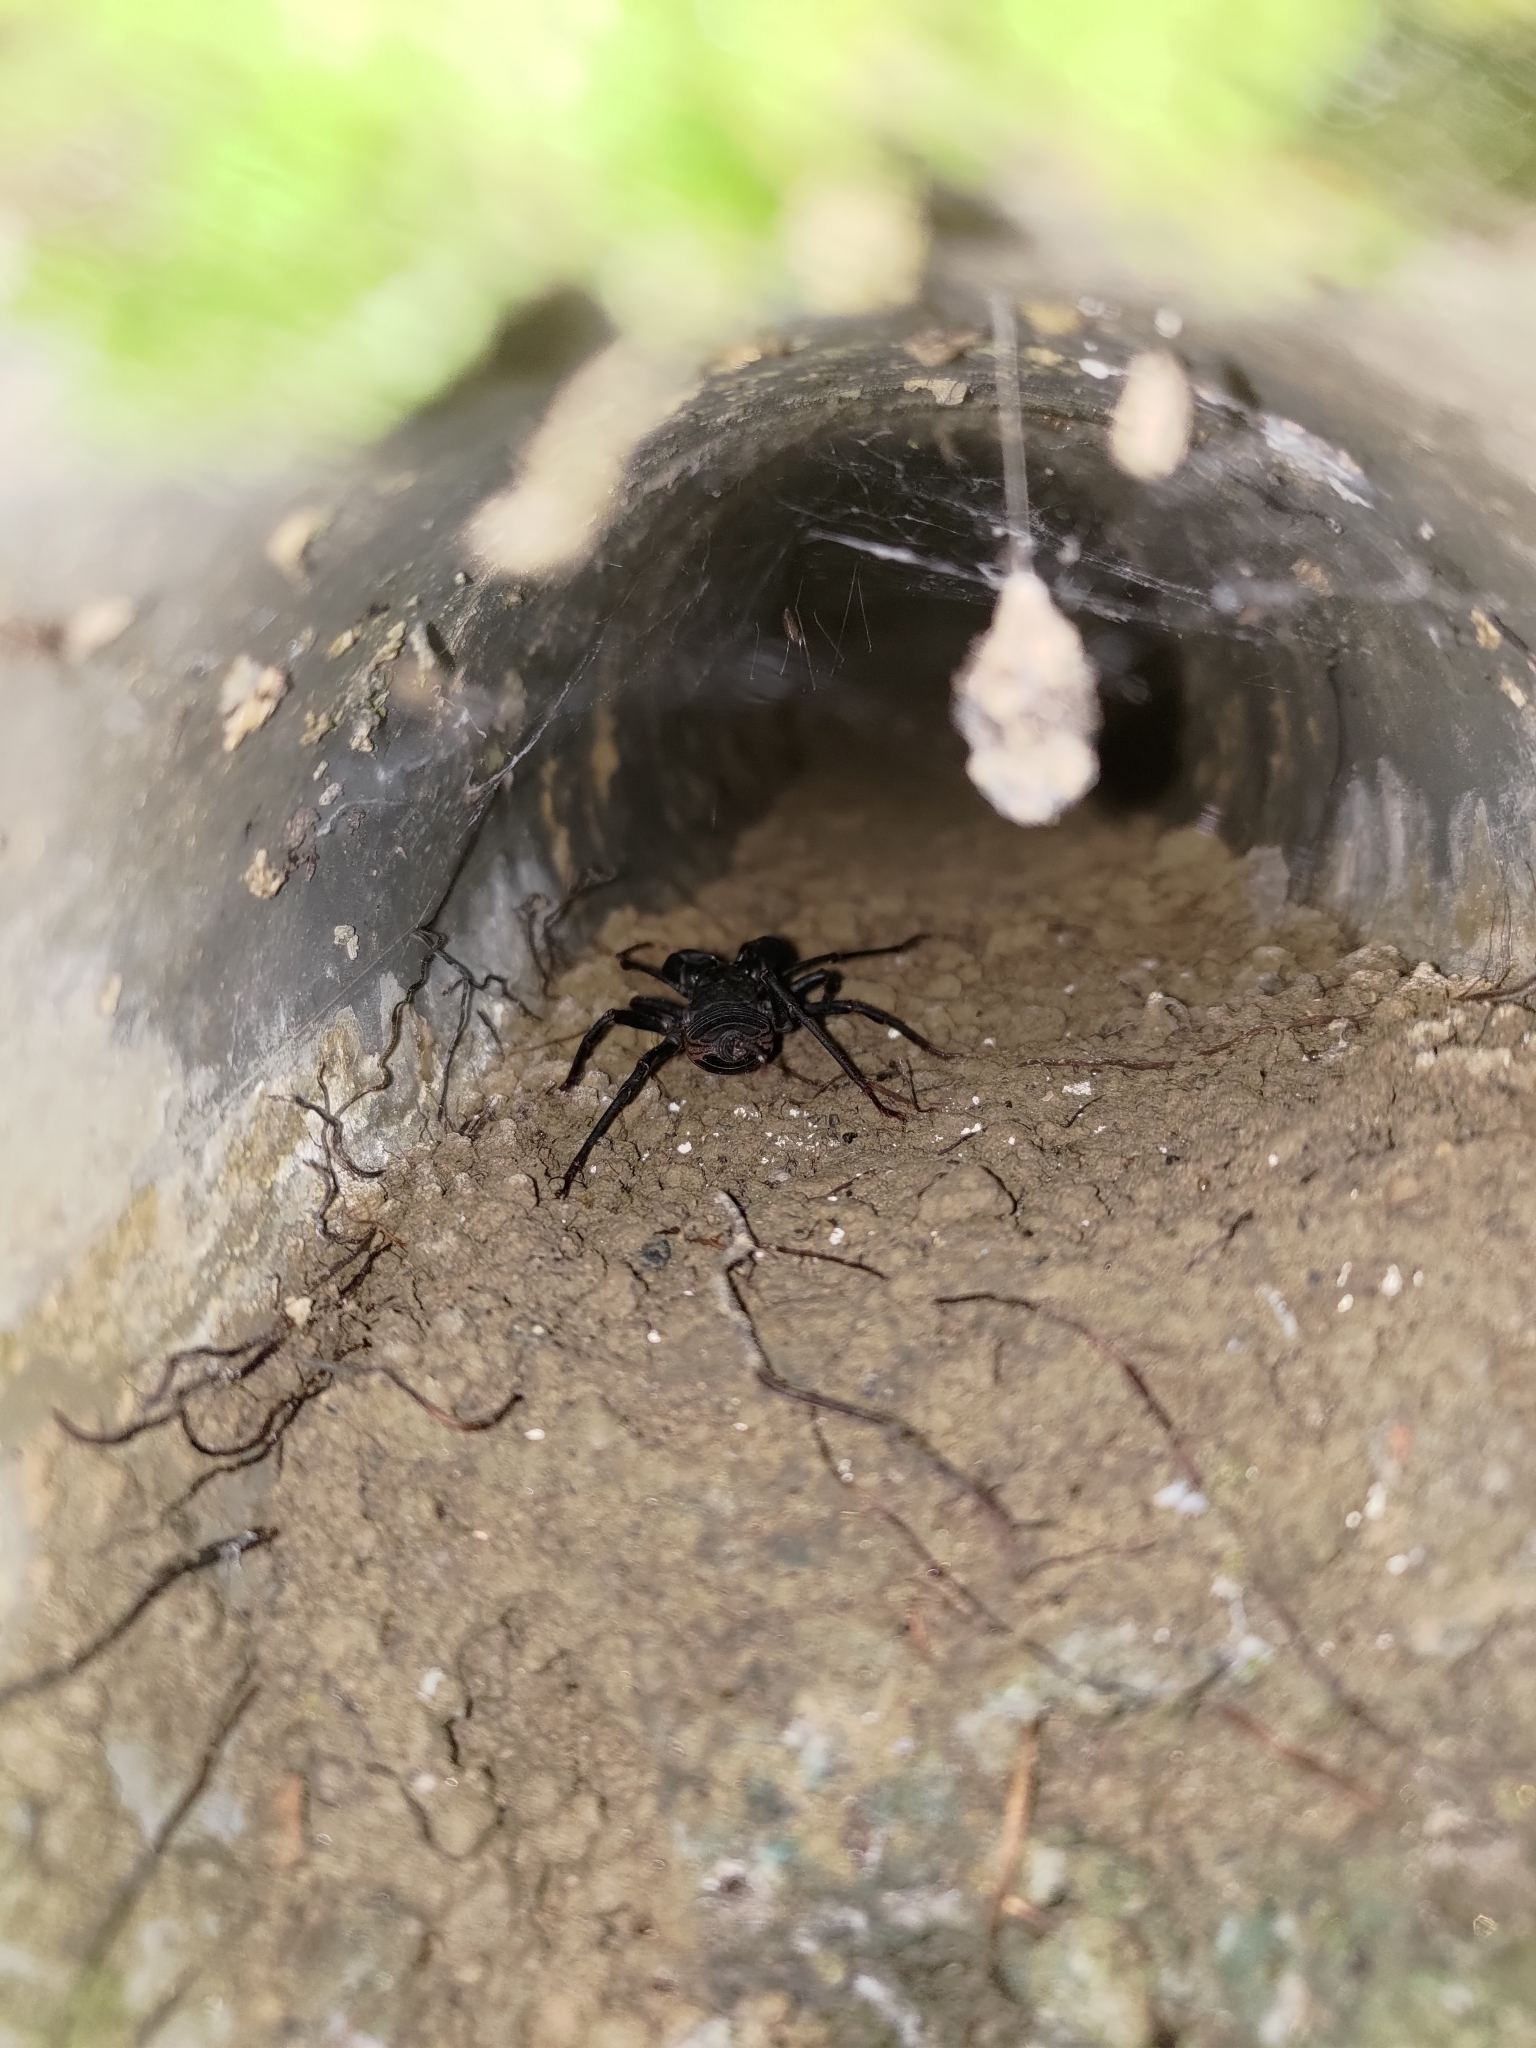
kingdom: Animalia
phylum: Arthropoda
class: Arachnida
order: Uropygi
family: Thelyphonidae
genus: Typopeltis
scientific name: Typopeltis crucifer
